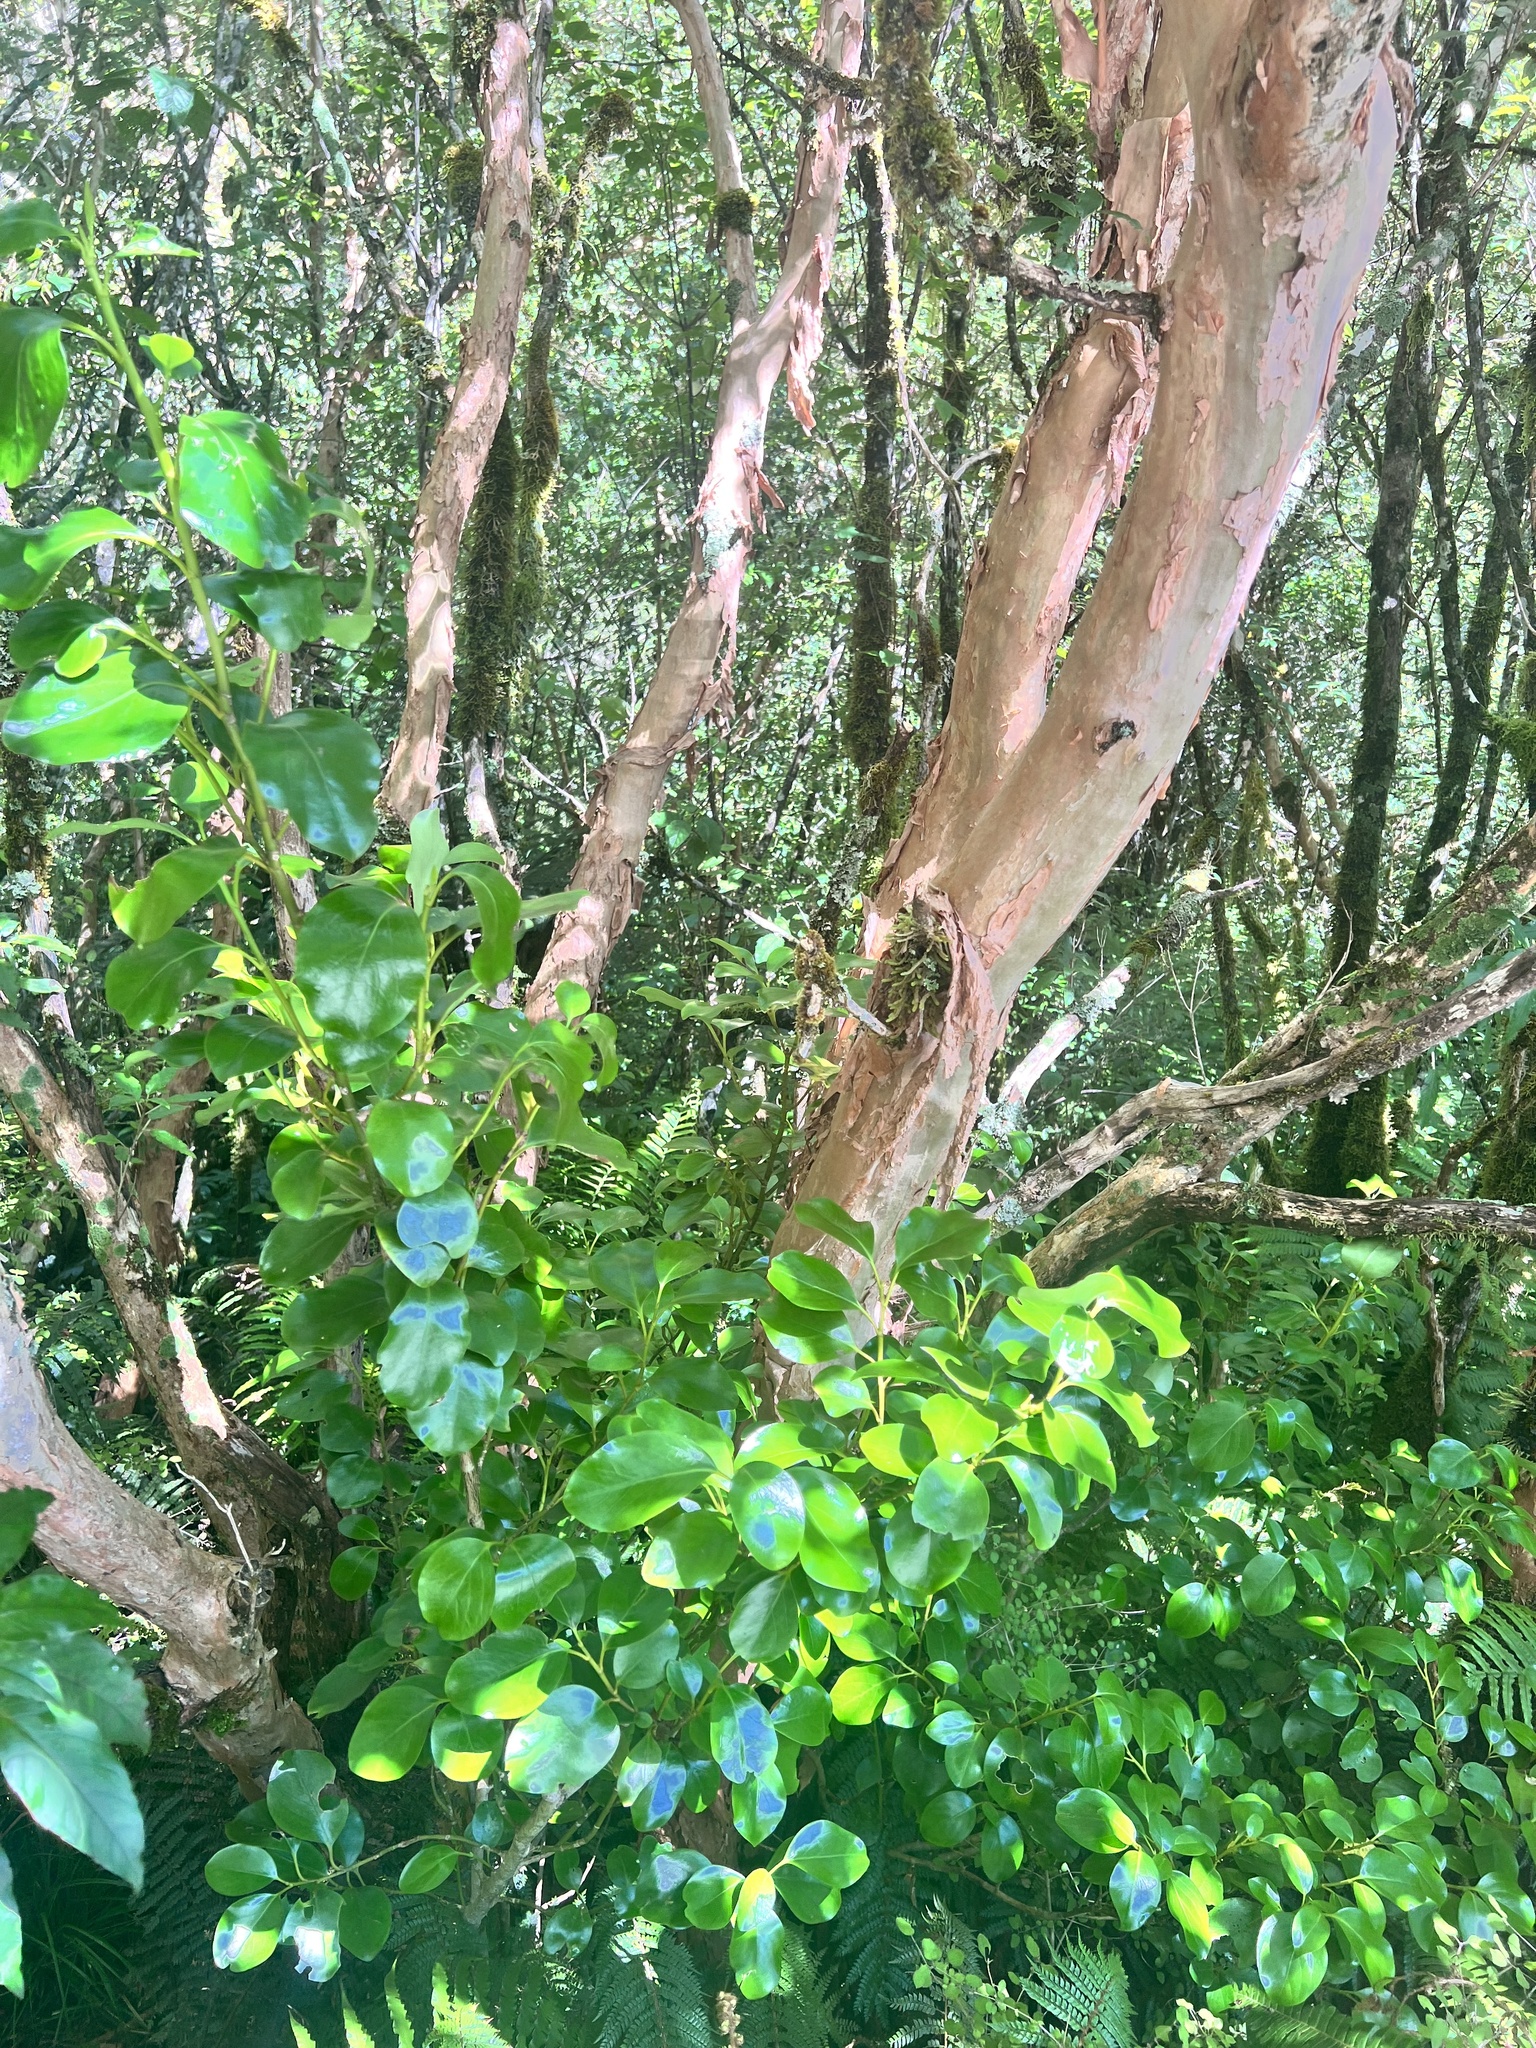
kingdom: Plantae
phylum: Tracheophyta
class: Magnoliopsida
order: Apiales
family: Griseliniaceae
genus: Griselinia
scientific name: Griselinia littoralis
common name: New zealand broadleaf
